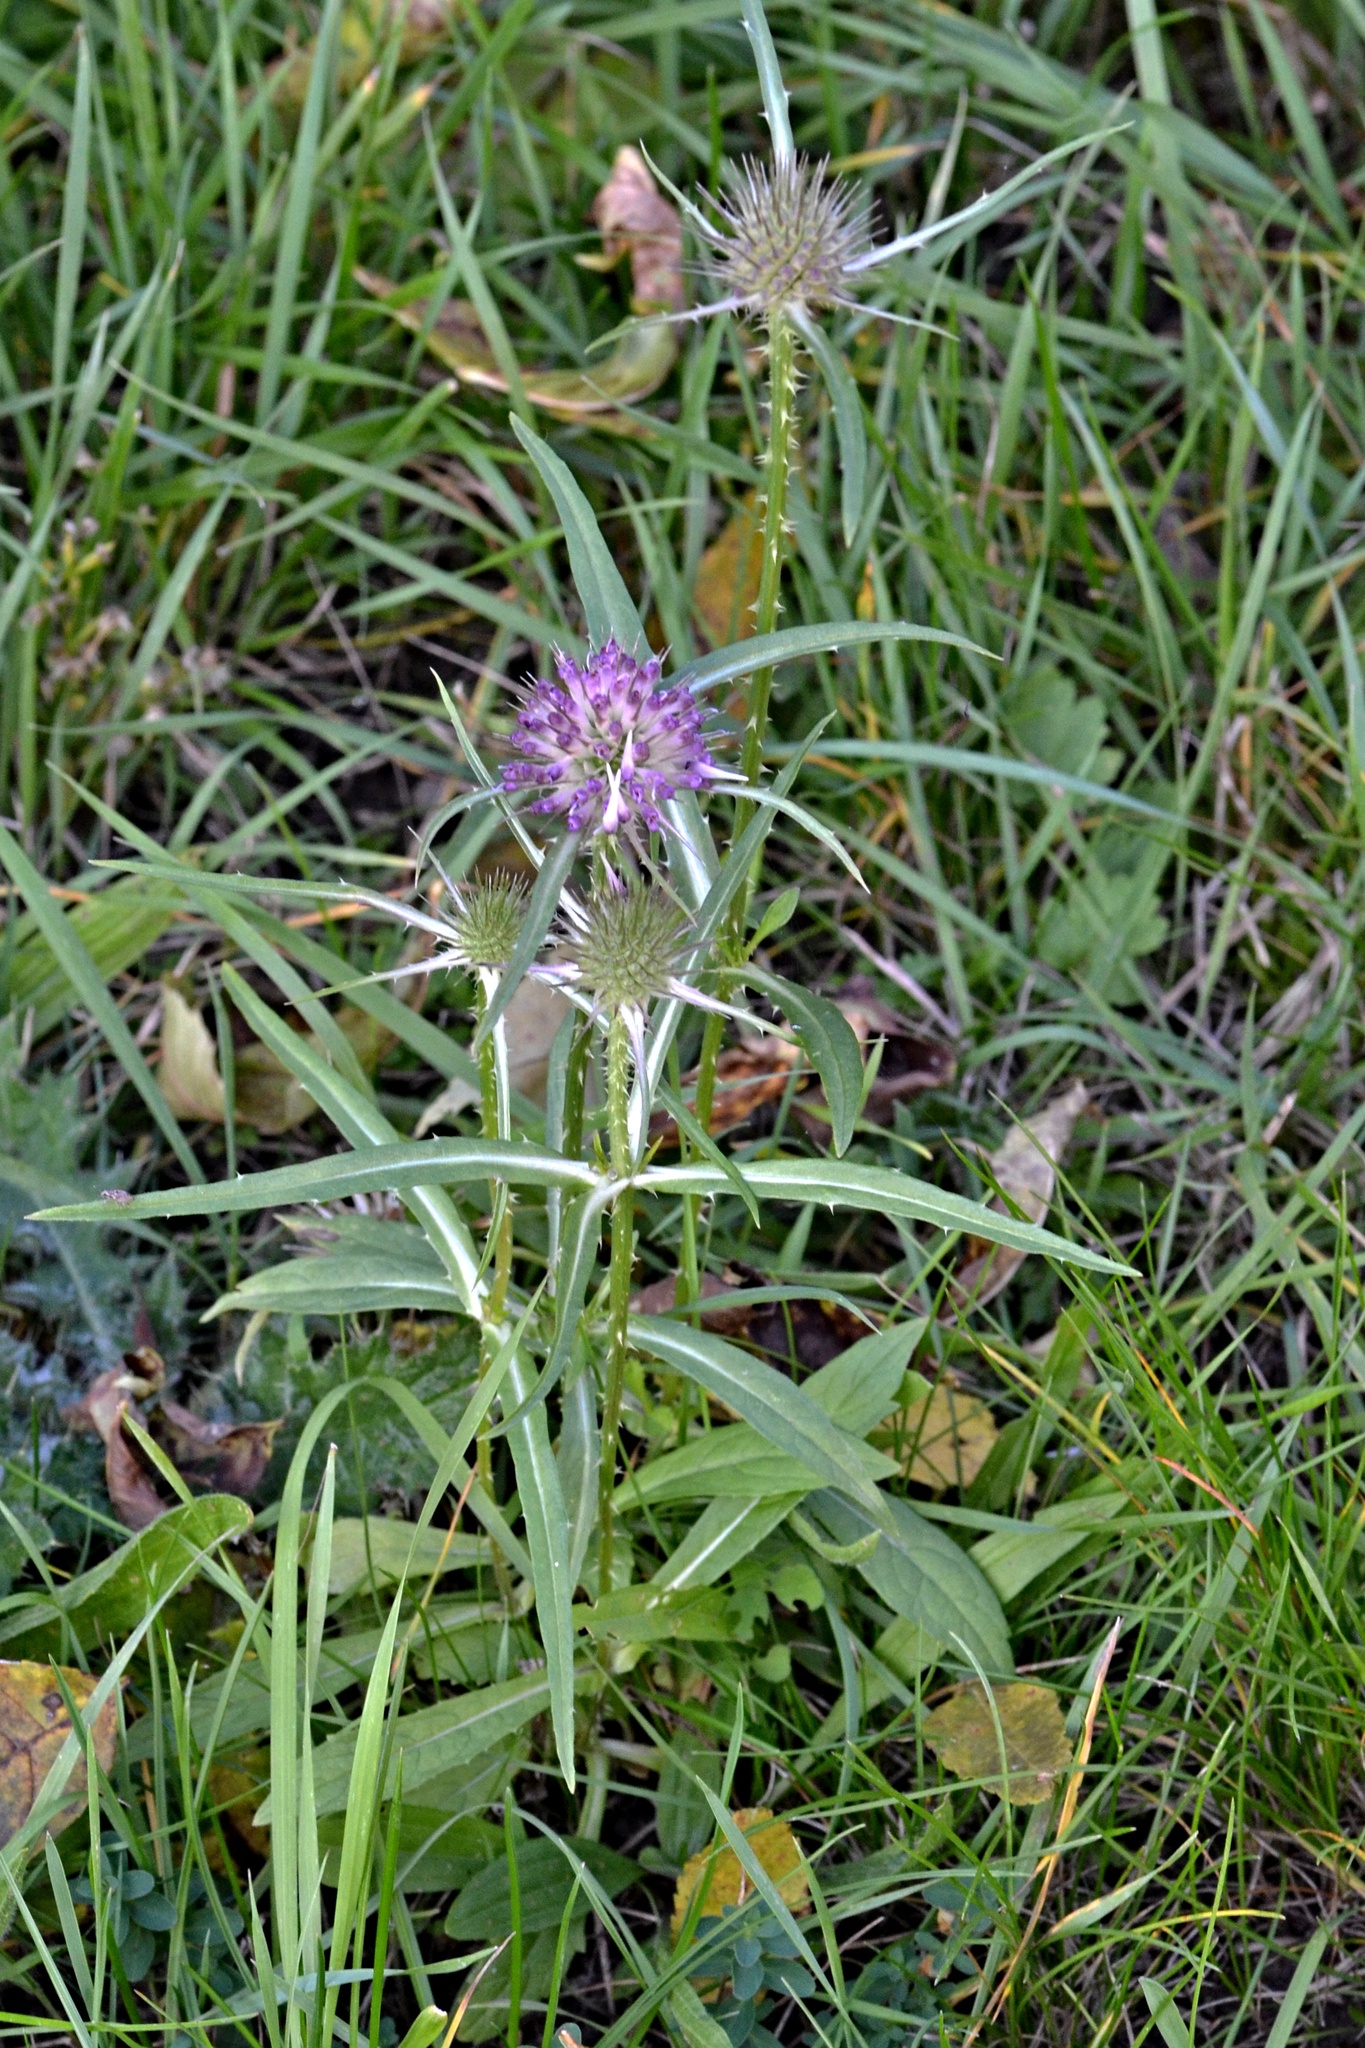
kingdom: Plantae
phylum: Tracheophyta
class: Magnoliopsida
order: Dipsacales
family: Caprifoliaceae
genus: Dipsacus
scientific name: Dipsacus fullonum
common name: Teasel
